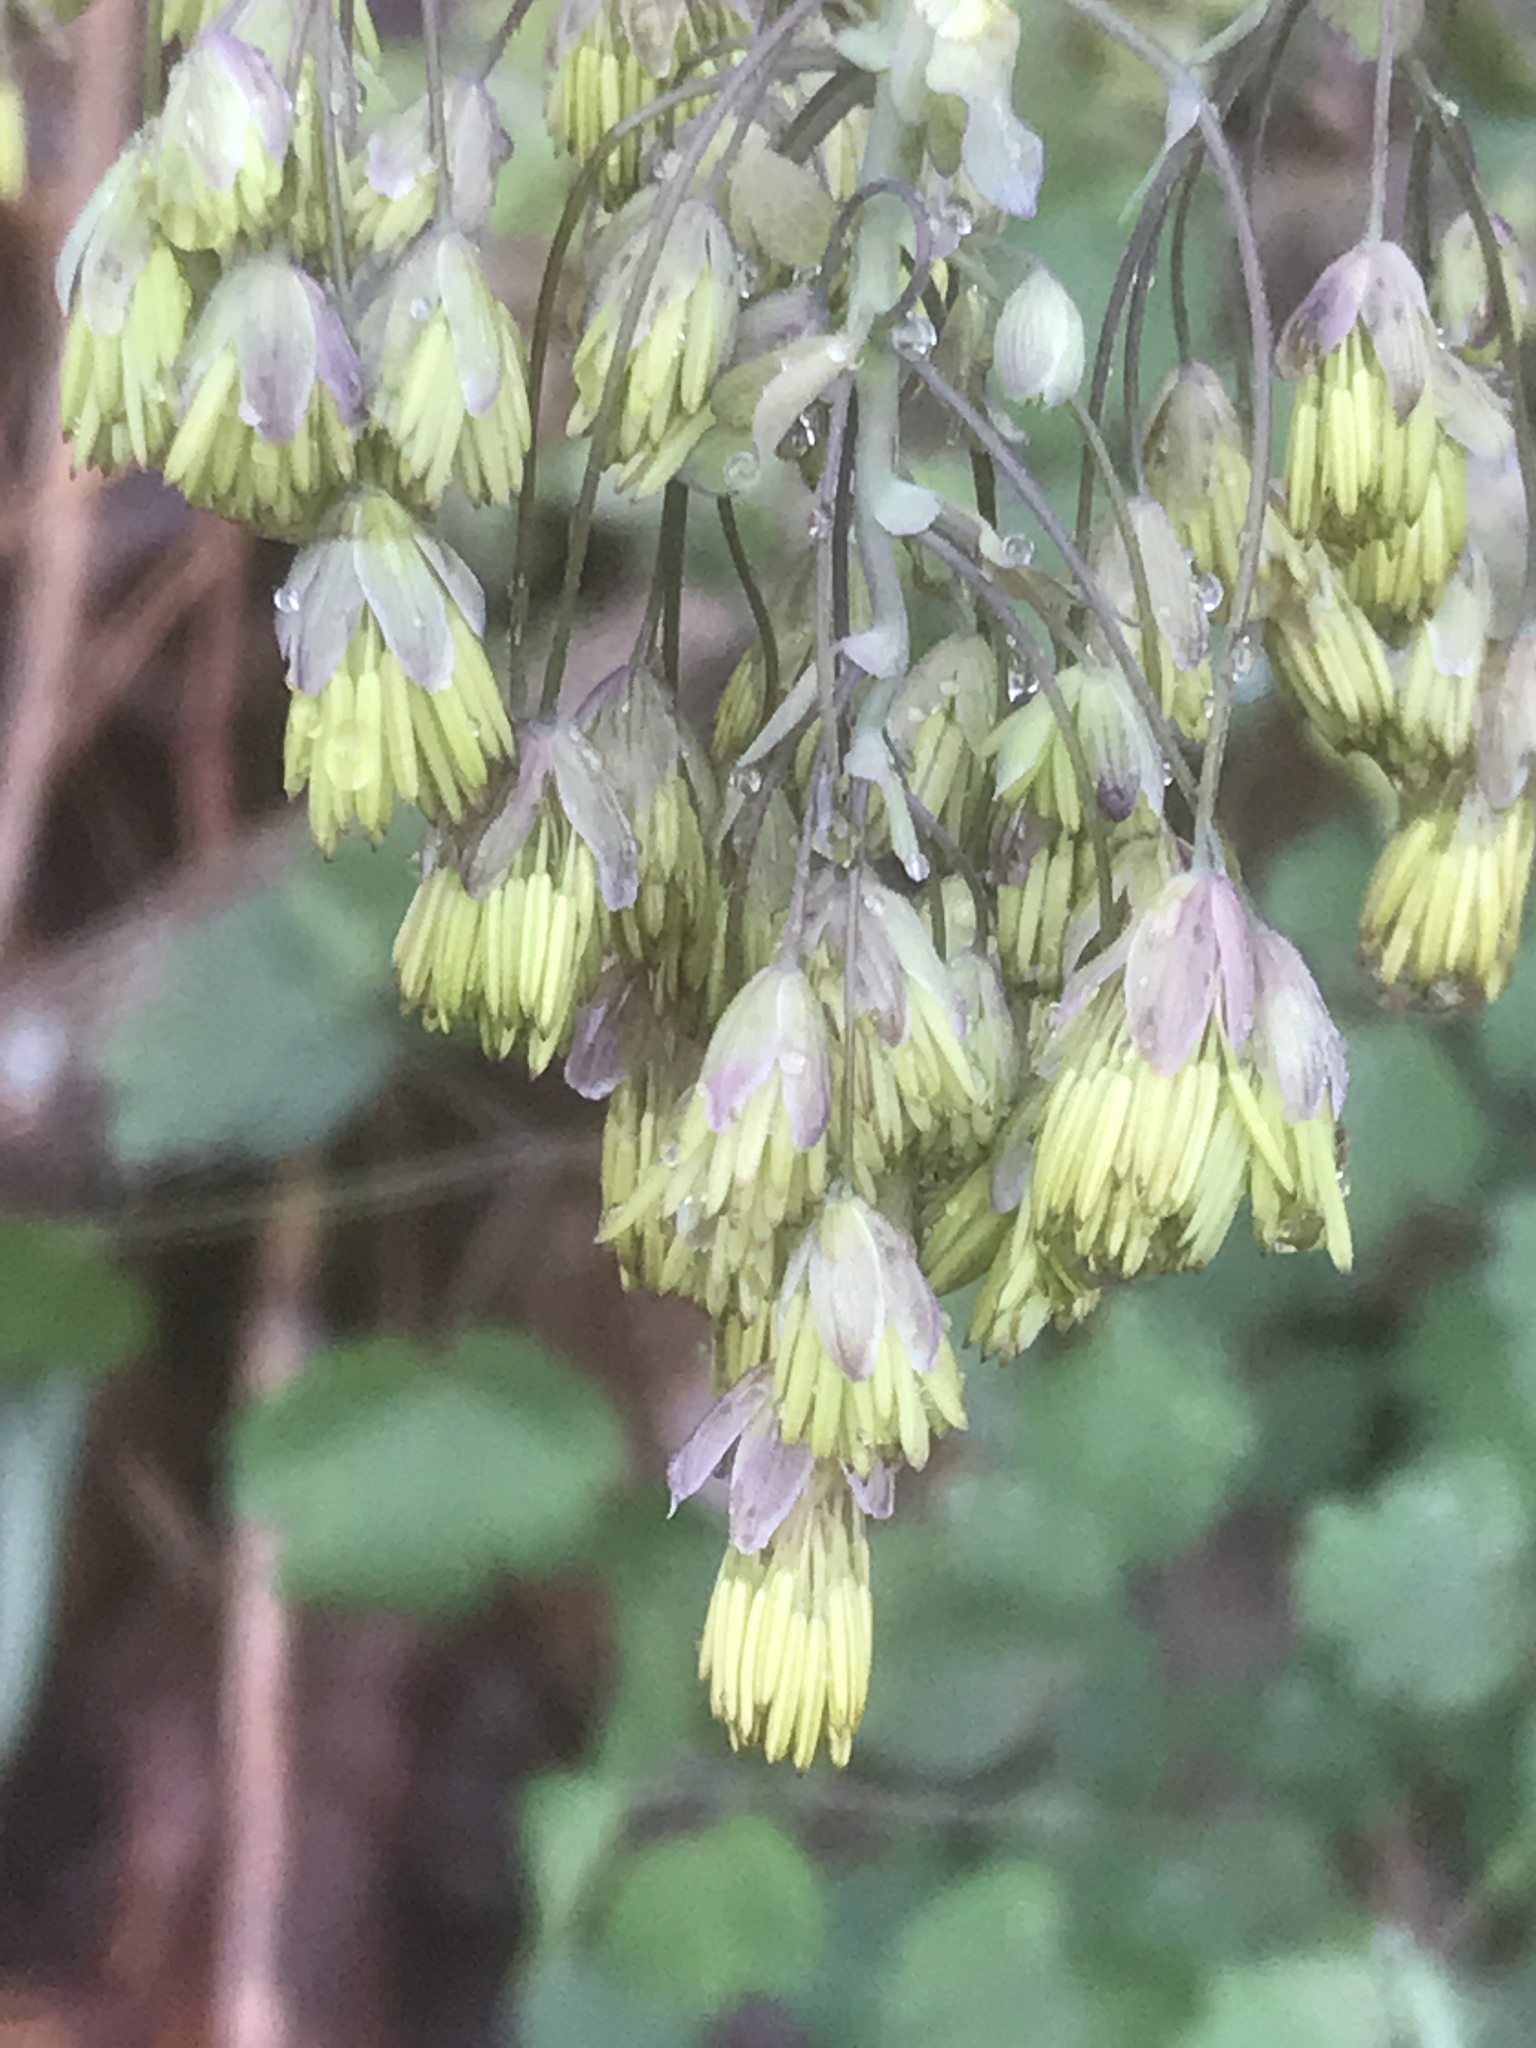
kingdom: Plantae
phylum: Tracheophyta
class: Magnoliopsida
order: Ranunculales
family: Ranunculaceae
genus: Thalictrum
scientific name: Thalictrum dioicum
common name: Early meadow-rue
